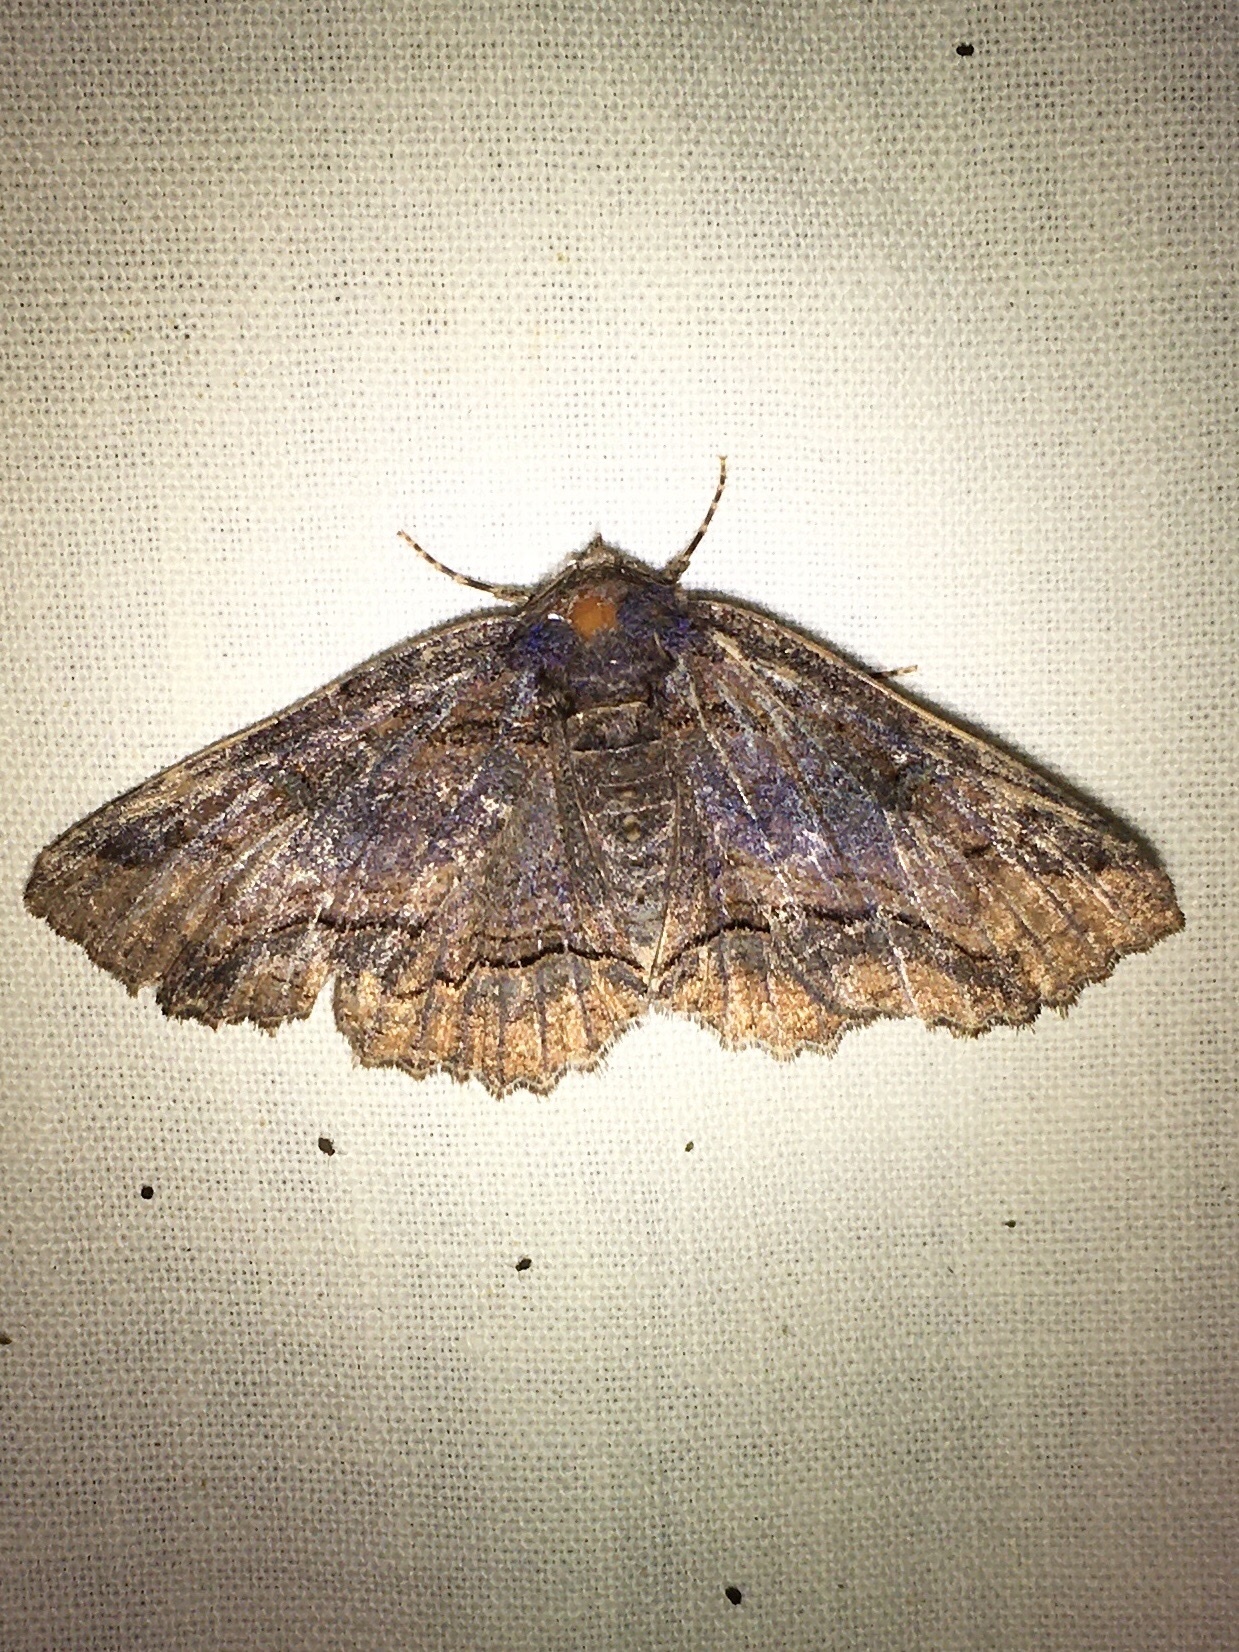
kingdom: Animalia
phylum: Arthropoda
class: Insecta
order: Lepidoptera
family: Erebidae
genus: Zale
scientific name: Zale minerea
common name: Colorful zale moth
